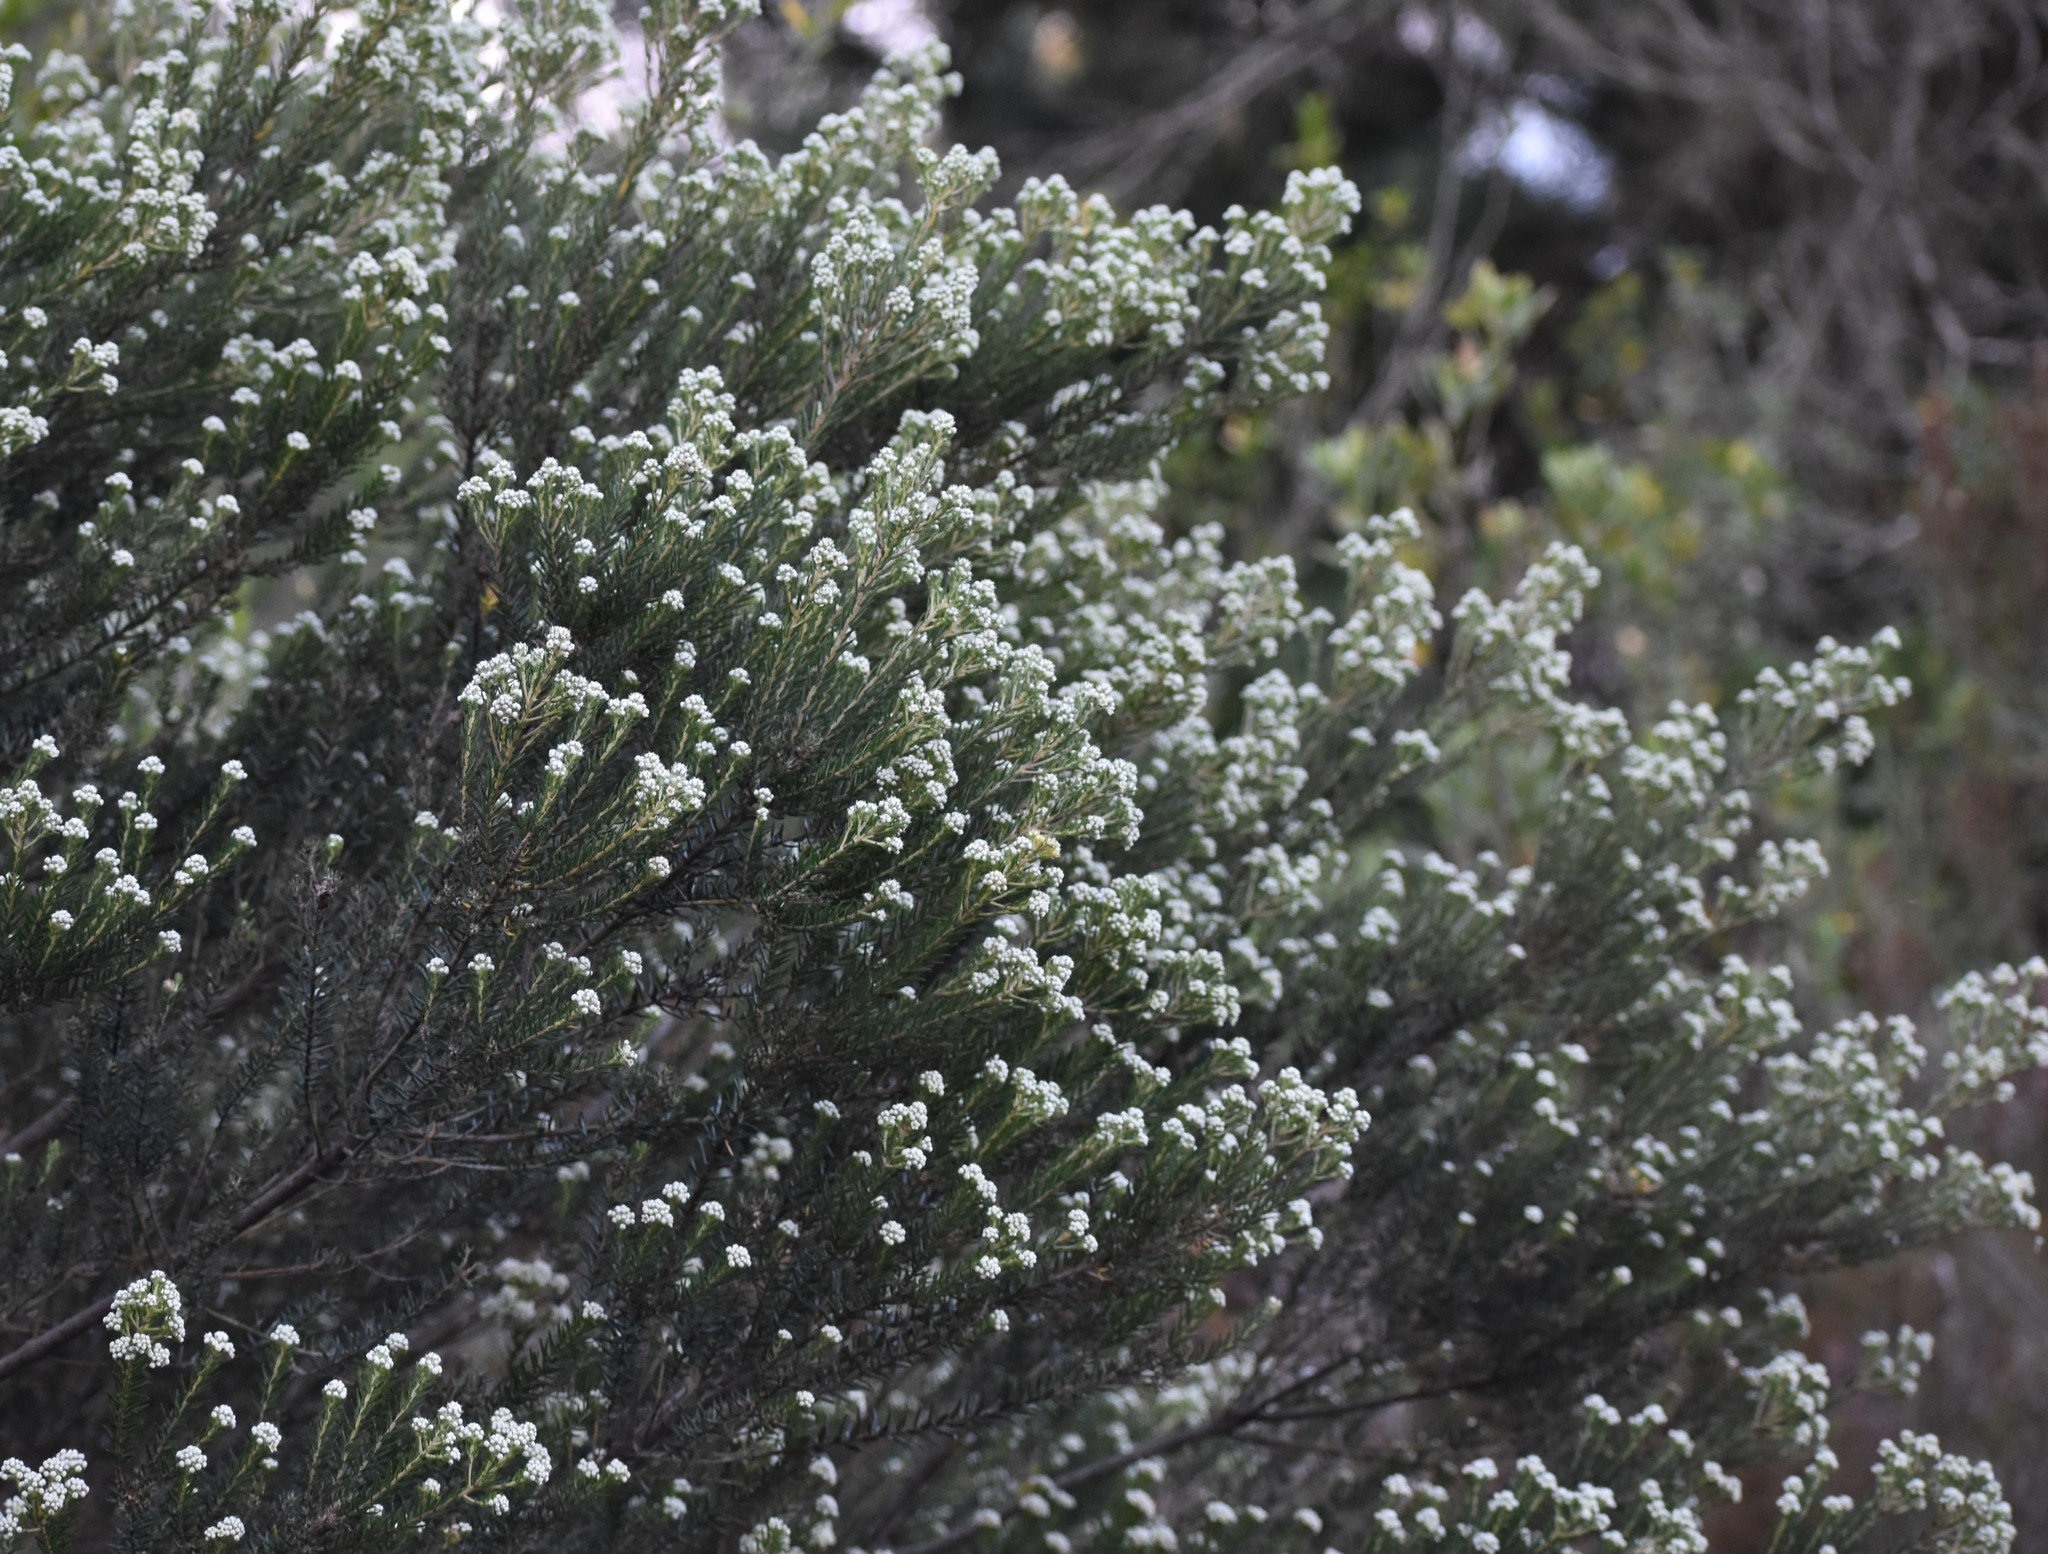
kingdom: Plantae
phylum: Tracheophyta
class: Magnoliopsida
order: Rosales
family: Rhamnaceae
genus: Phylica
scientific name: Phylica purpurea
